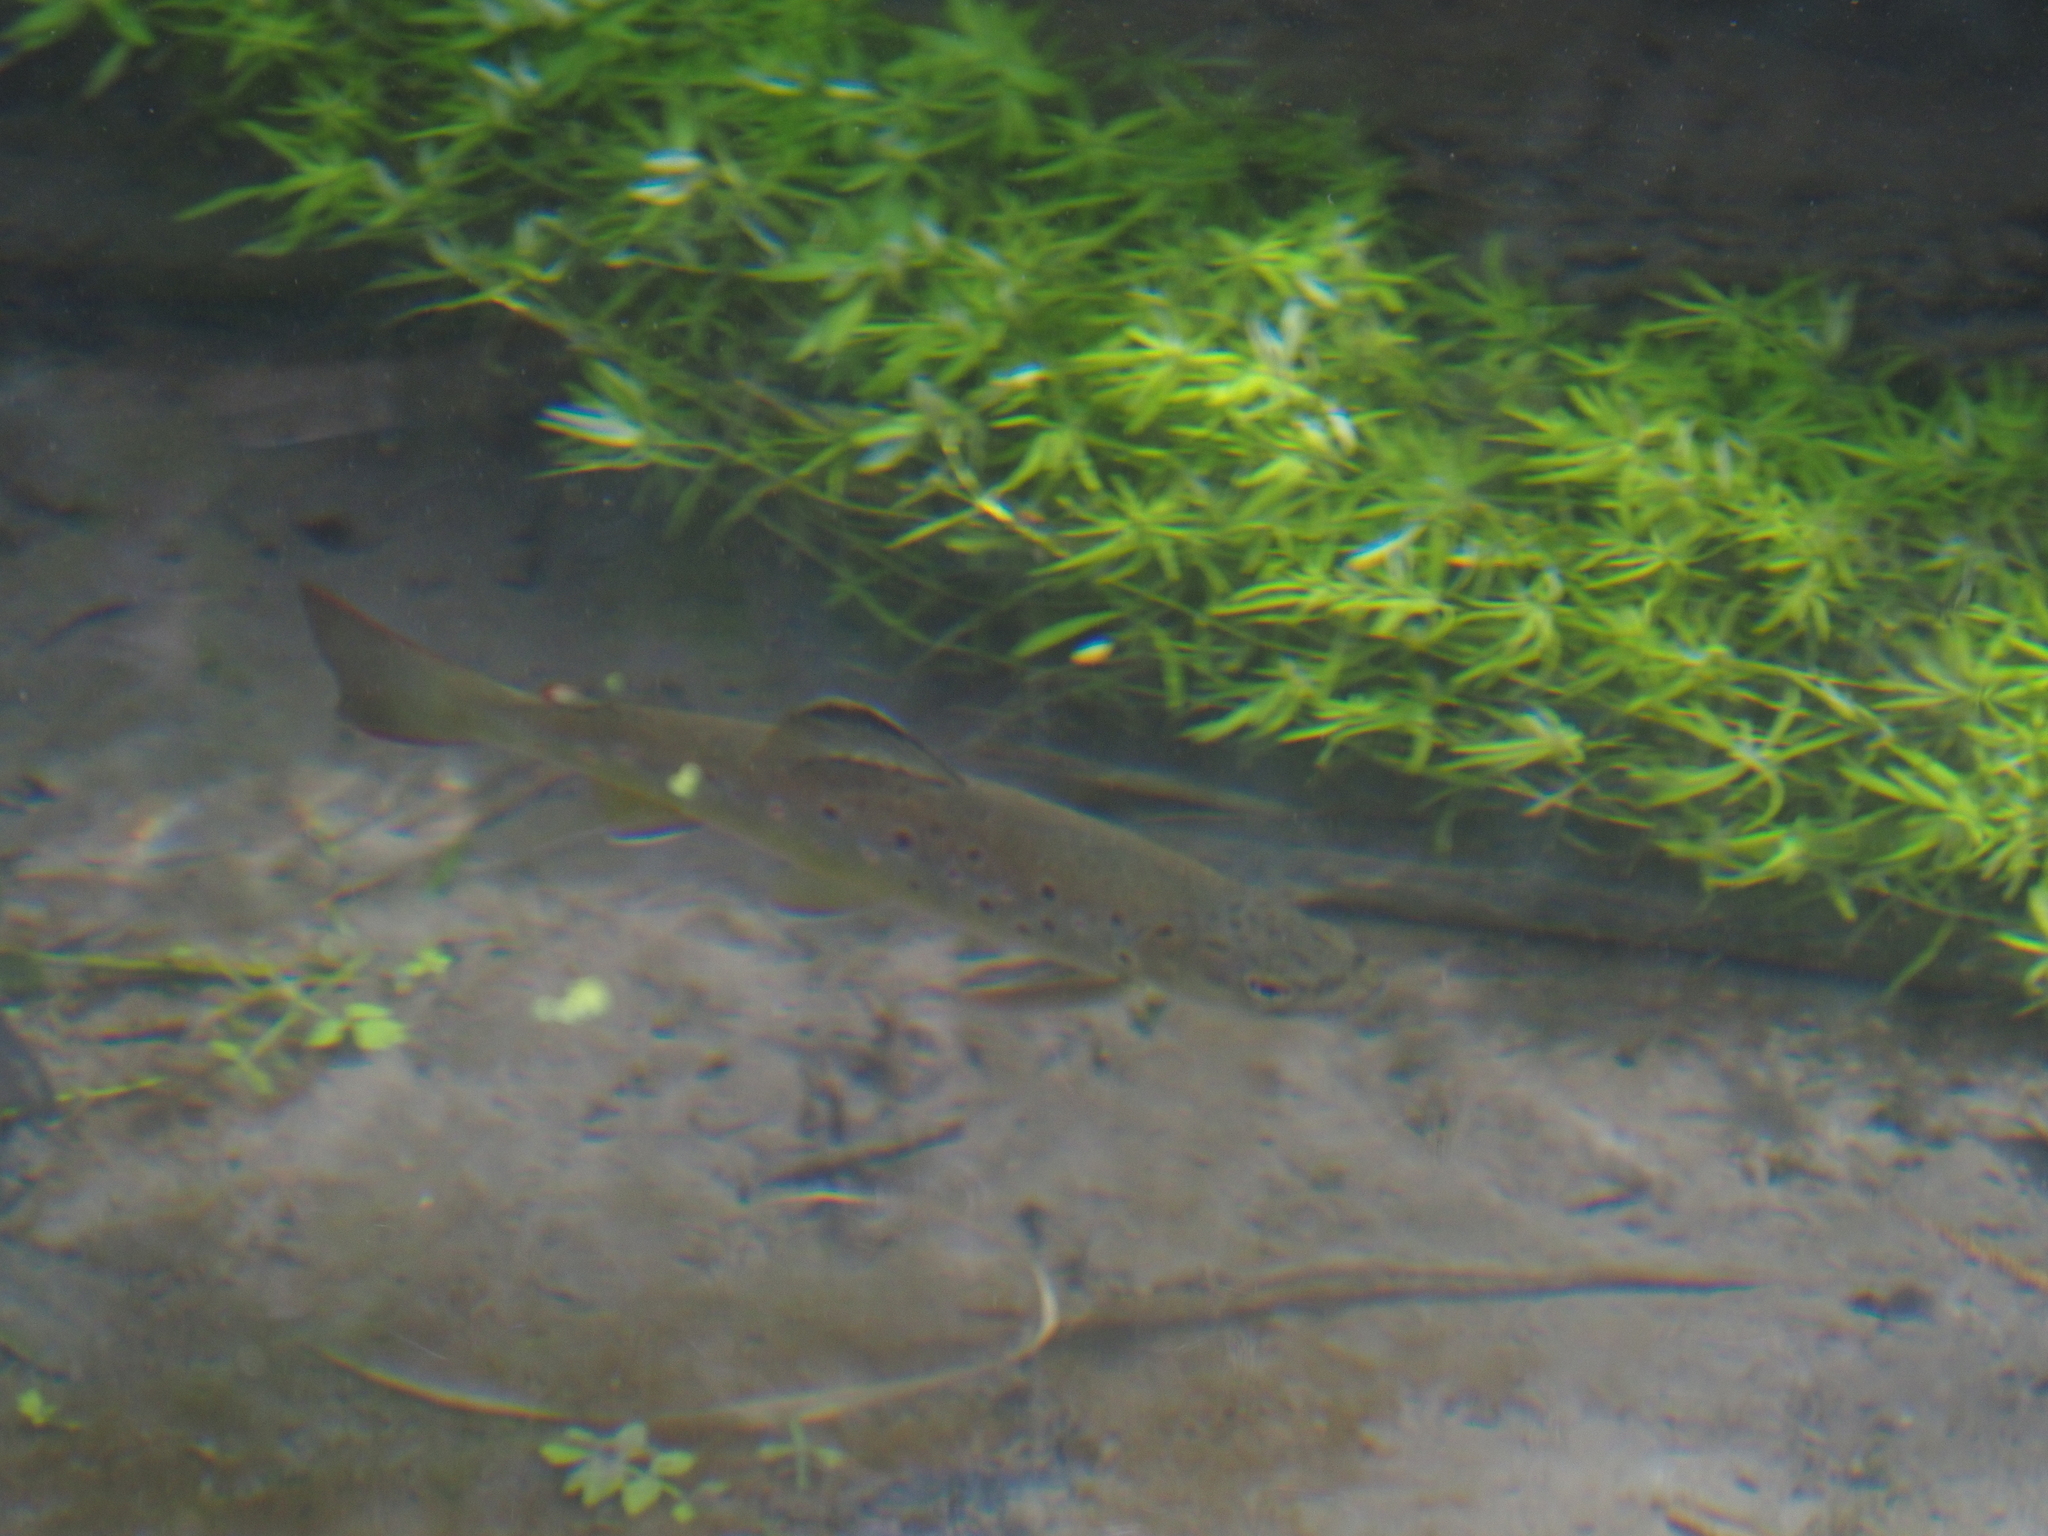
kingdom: Animalia
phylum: Chordata
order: Salmoniformes
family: Salmonidae
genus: Salmo
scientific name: Salmo trutta
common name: Brown trout
